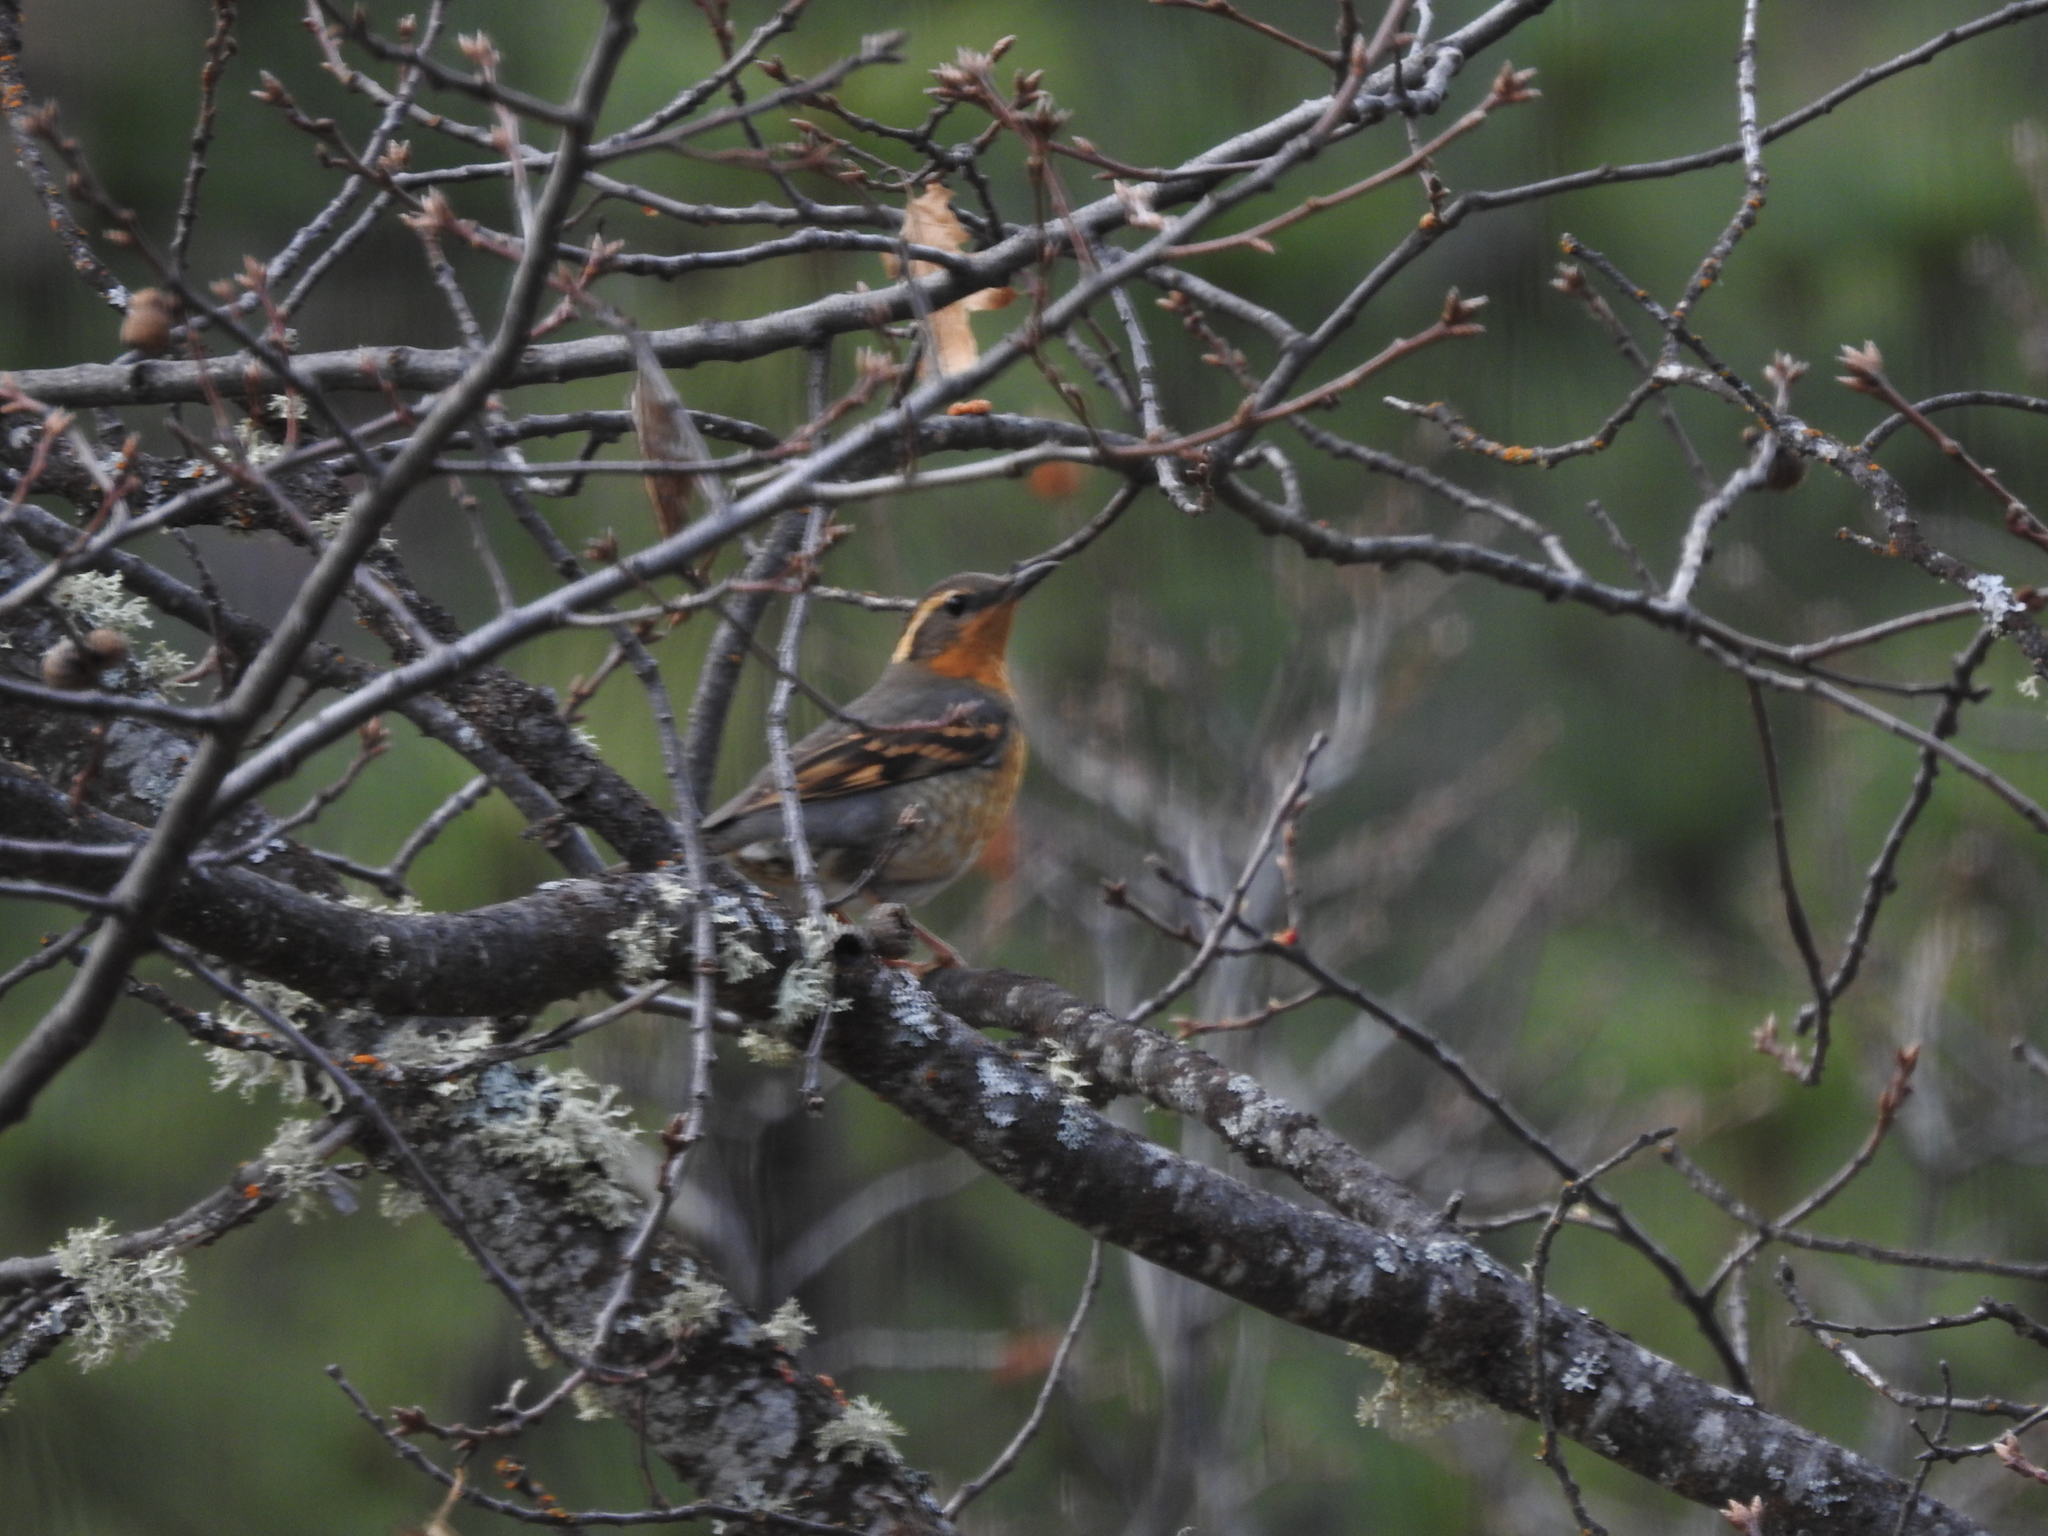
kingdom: Animalia
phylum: Chordata
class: Aves
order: Passeriformes
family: Turdidae
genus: Ixoreus
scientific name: Ixoreus naevius
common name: Varied thrush
